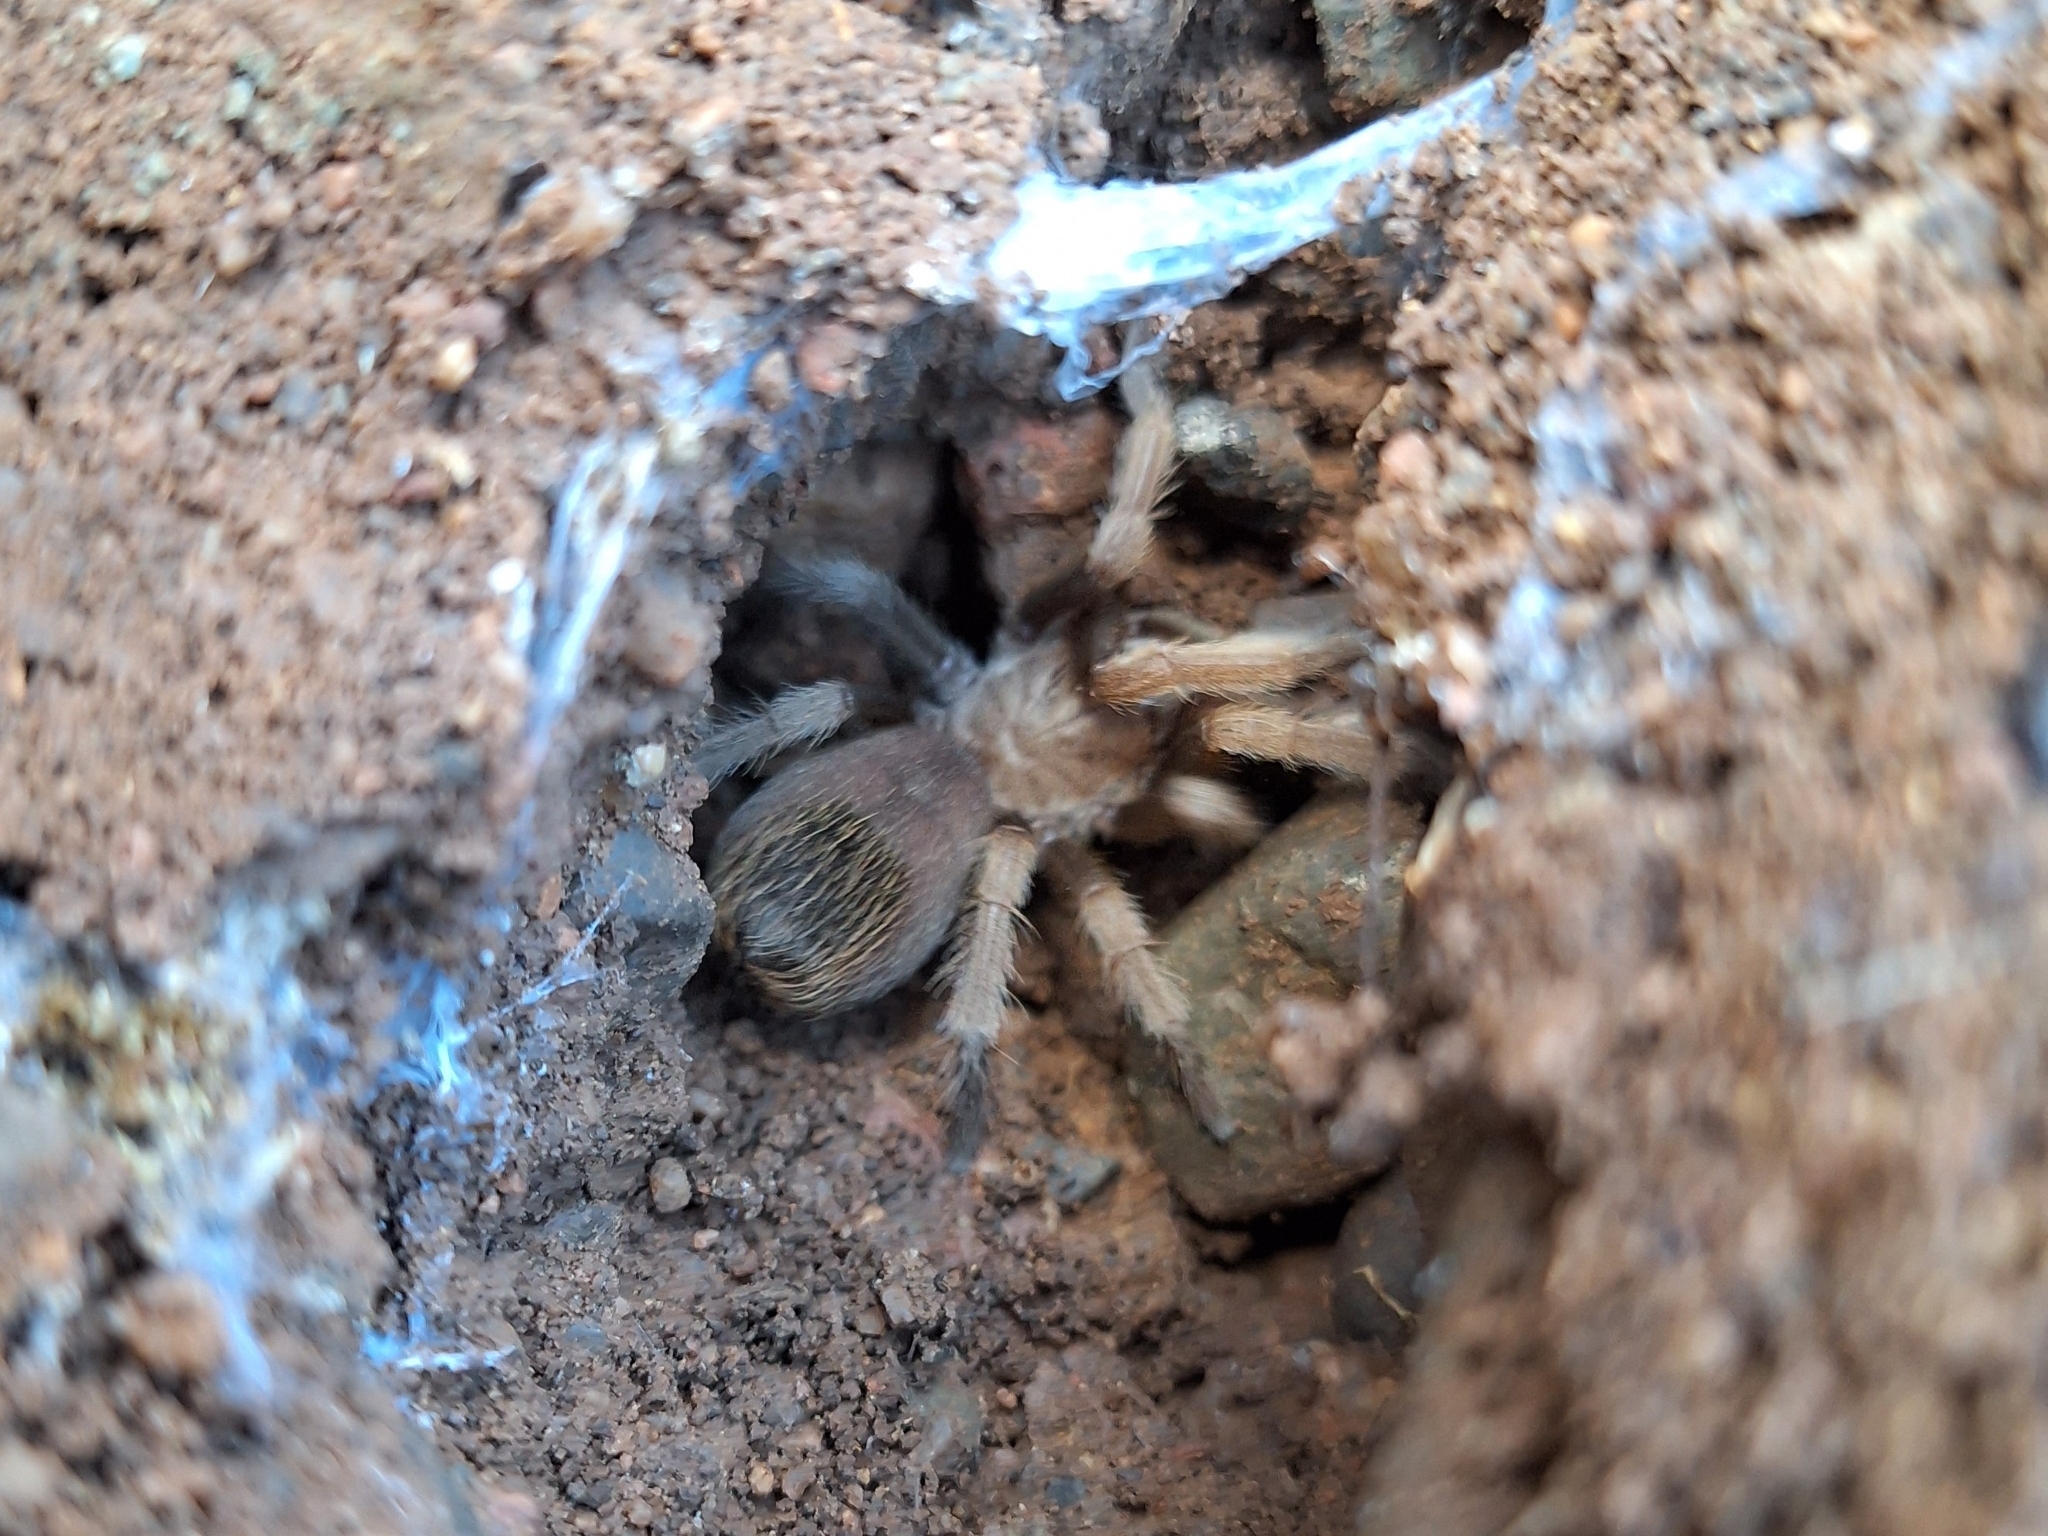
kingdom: Animalia
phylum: Arthropoda
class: Arachnida
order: Araneae
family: Theraphosidae
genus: Aphonopelma
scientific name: Aphonopelma chalcodes
